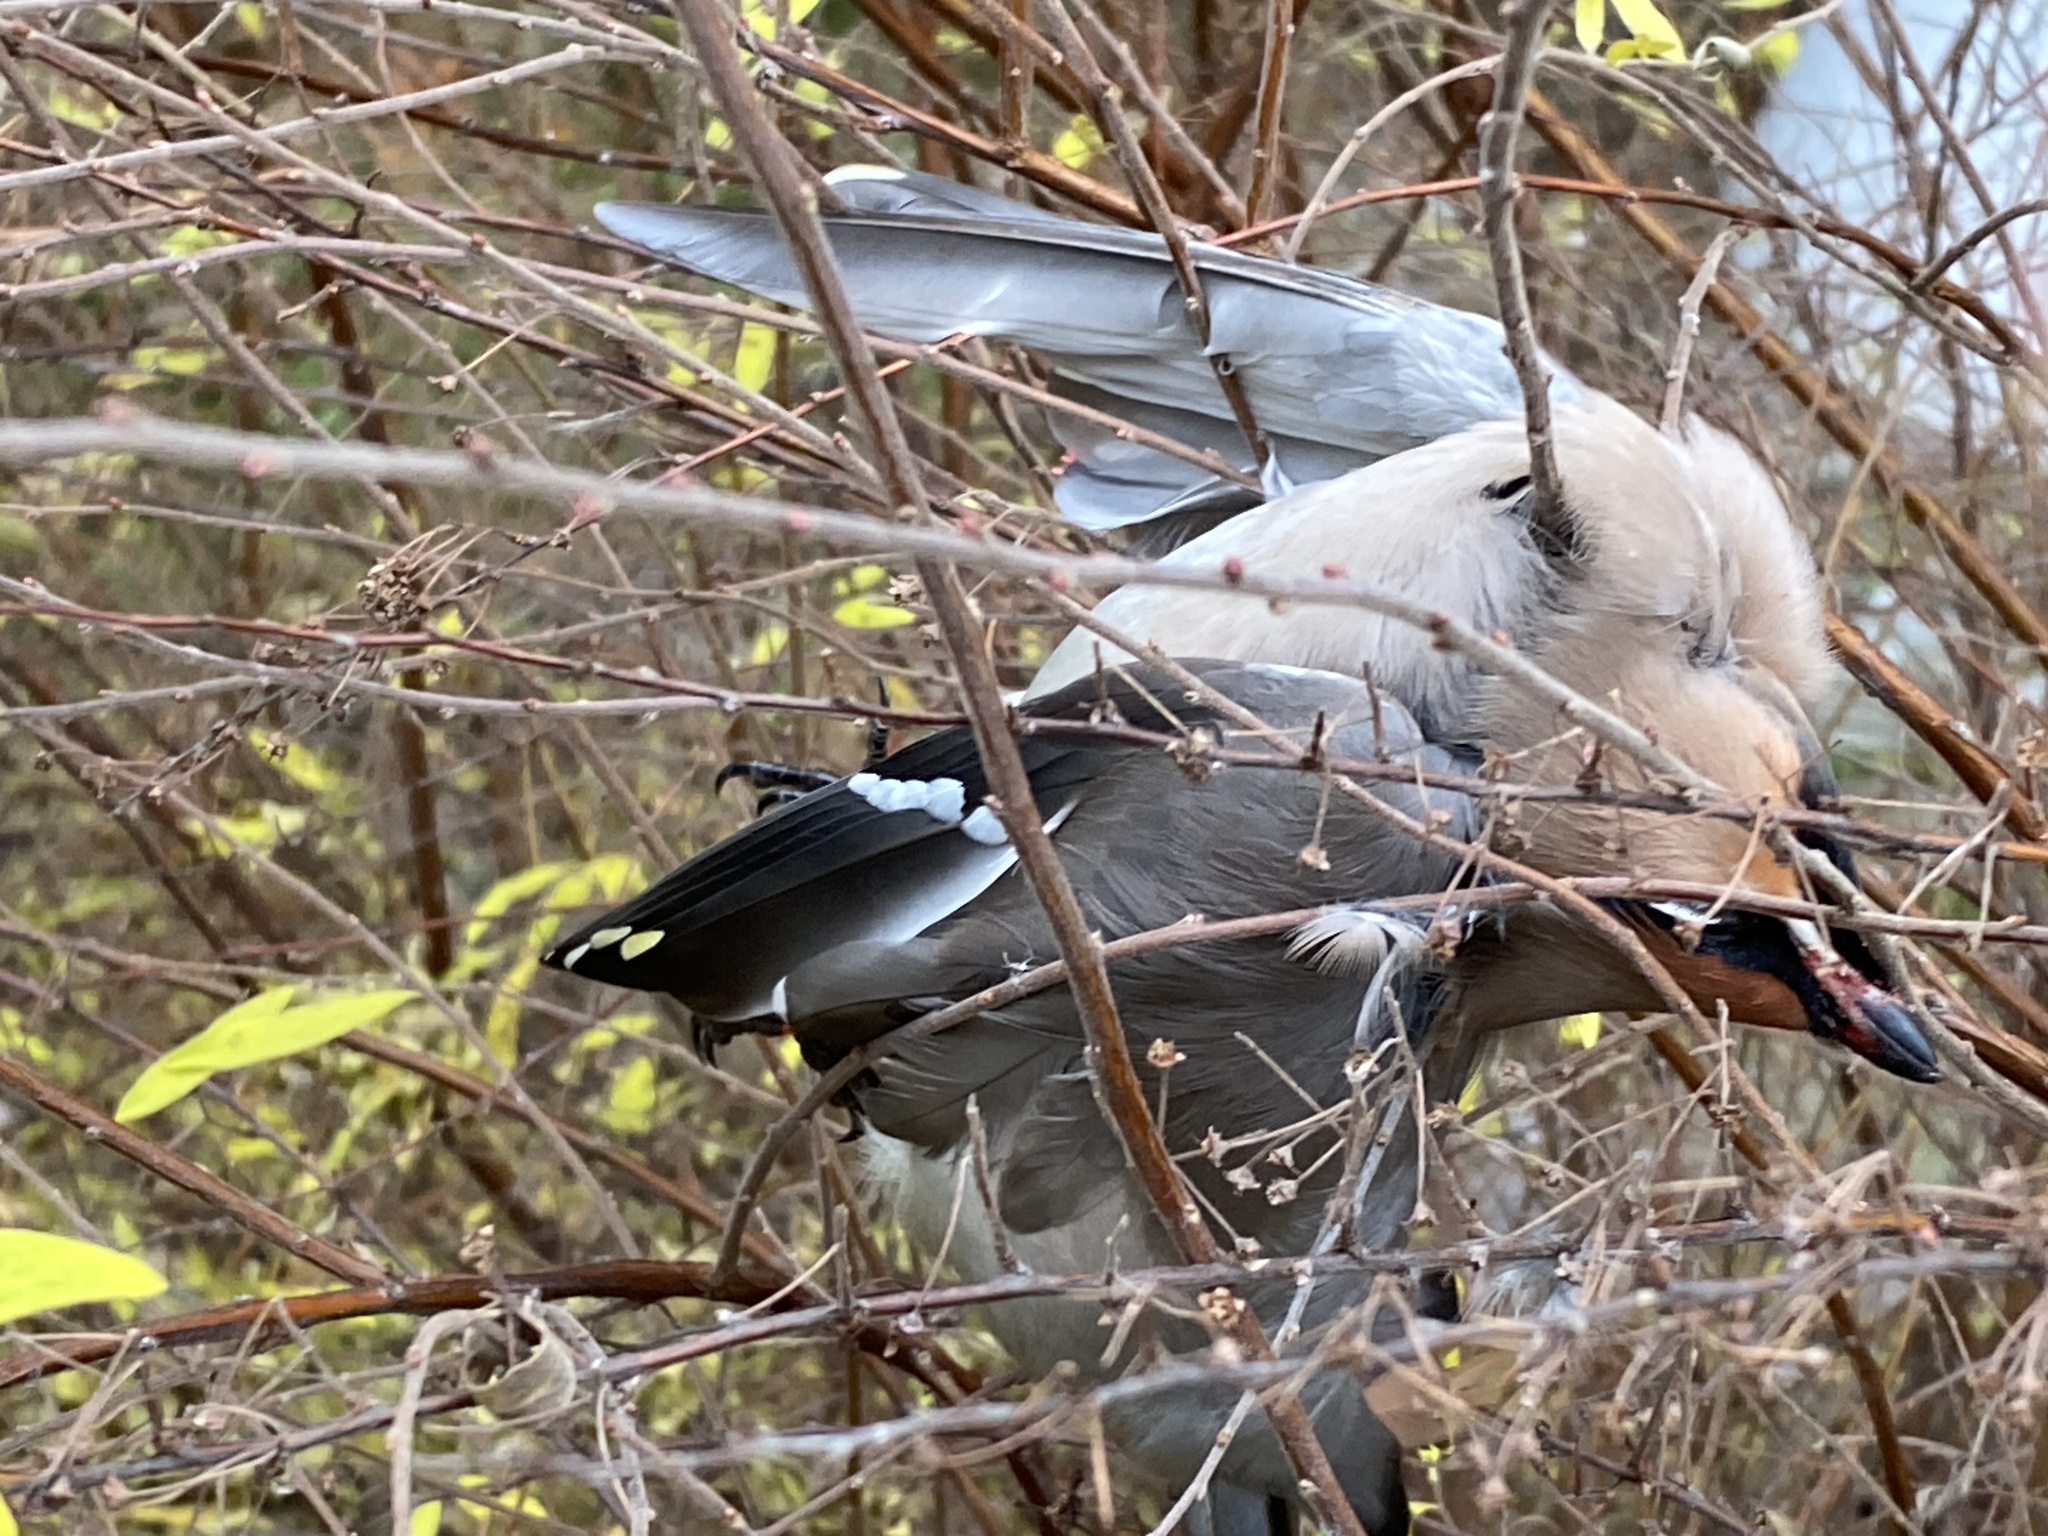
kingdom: Animalia
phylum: Chordata
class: Aves
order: Passeriformes
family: Bombycillidae
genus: Bombycilla
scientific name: Bombycilla garrulus
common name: Bohemian waxwing
